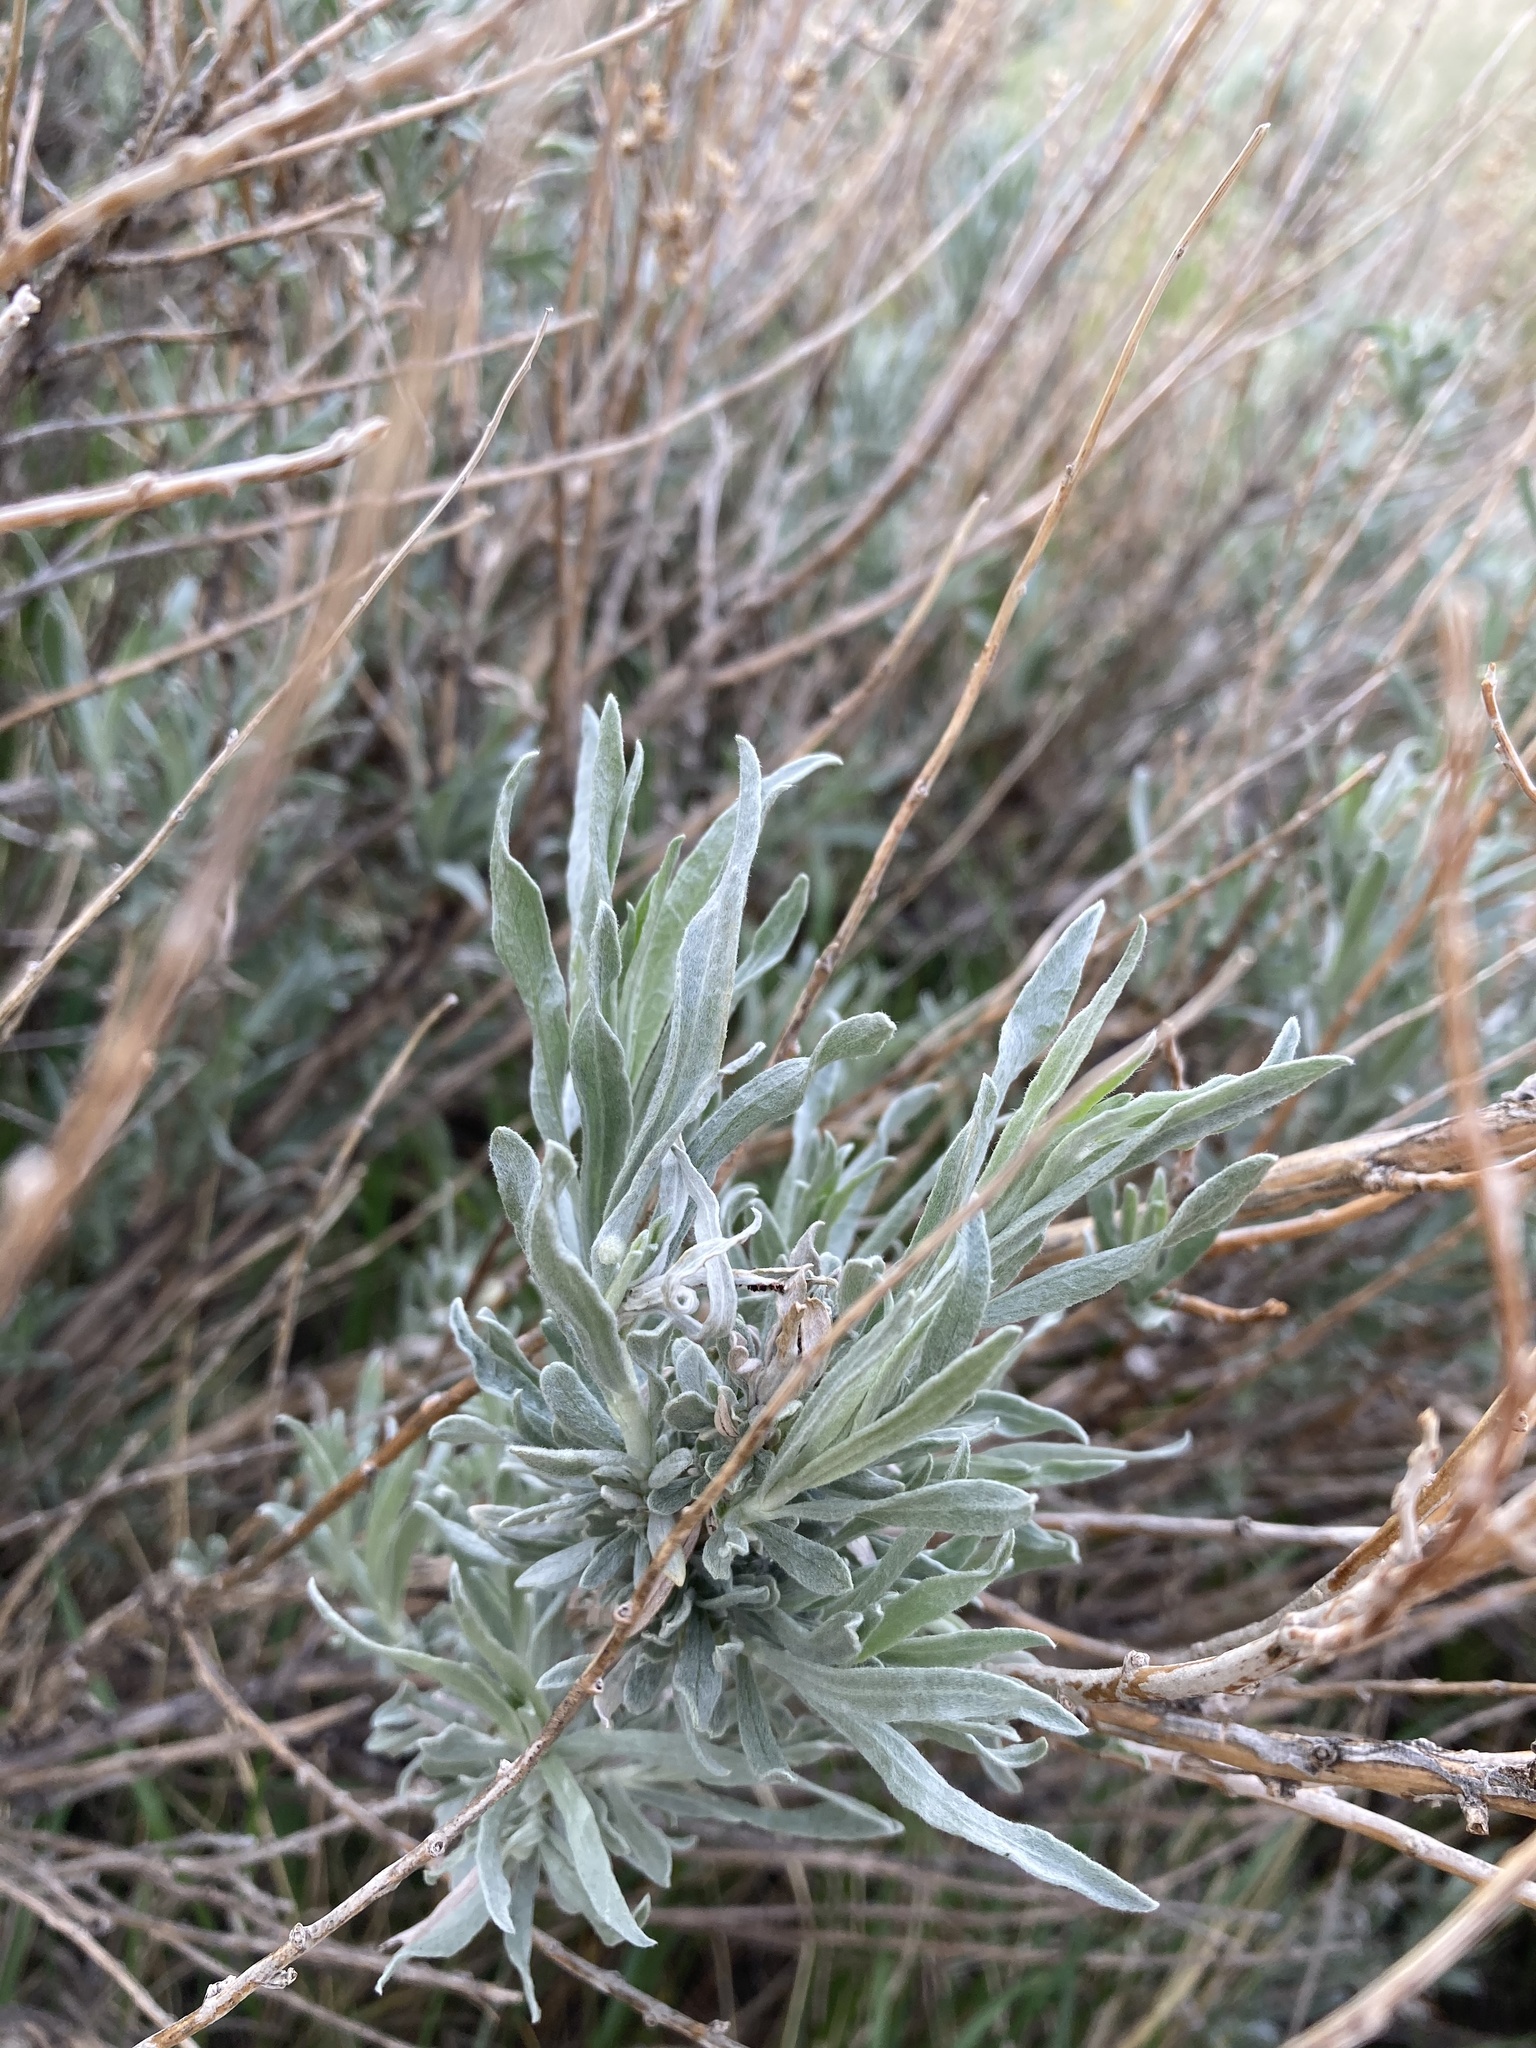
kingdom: Plantae
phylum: Tracheophyta
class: Magnoliopsida
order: Asterales
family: Asteraceae
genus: Artemisia
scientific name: Artemisia cana
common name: Silver sagebrush
